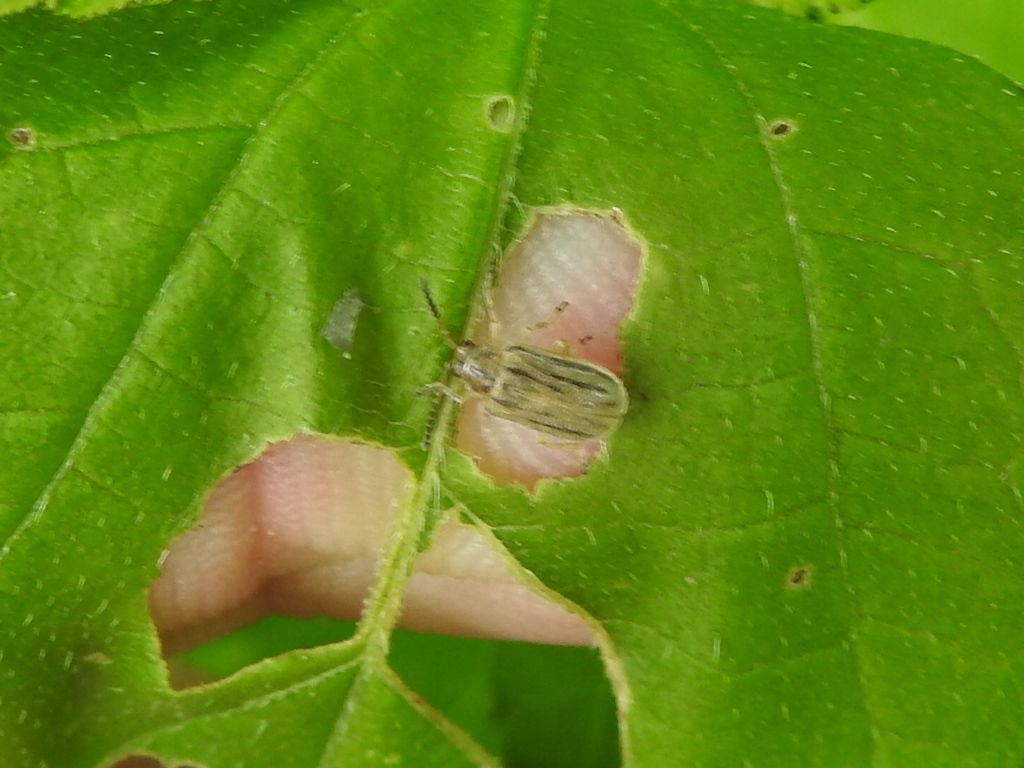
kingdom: Animalia
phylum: Arthropoda
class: Insecta
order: Coleoptera
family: Chrysomelidae
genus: Ophraella
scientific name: Ophraella communa
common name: Ragweed leaf beetle
